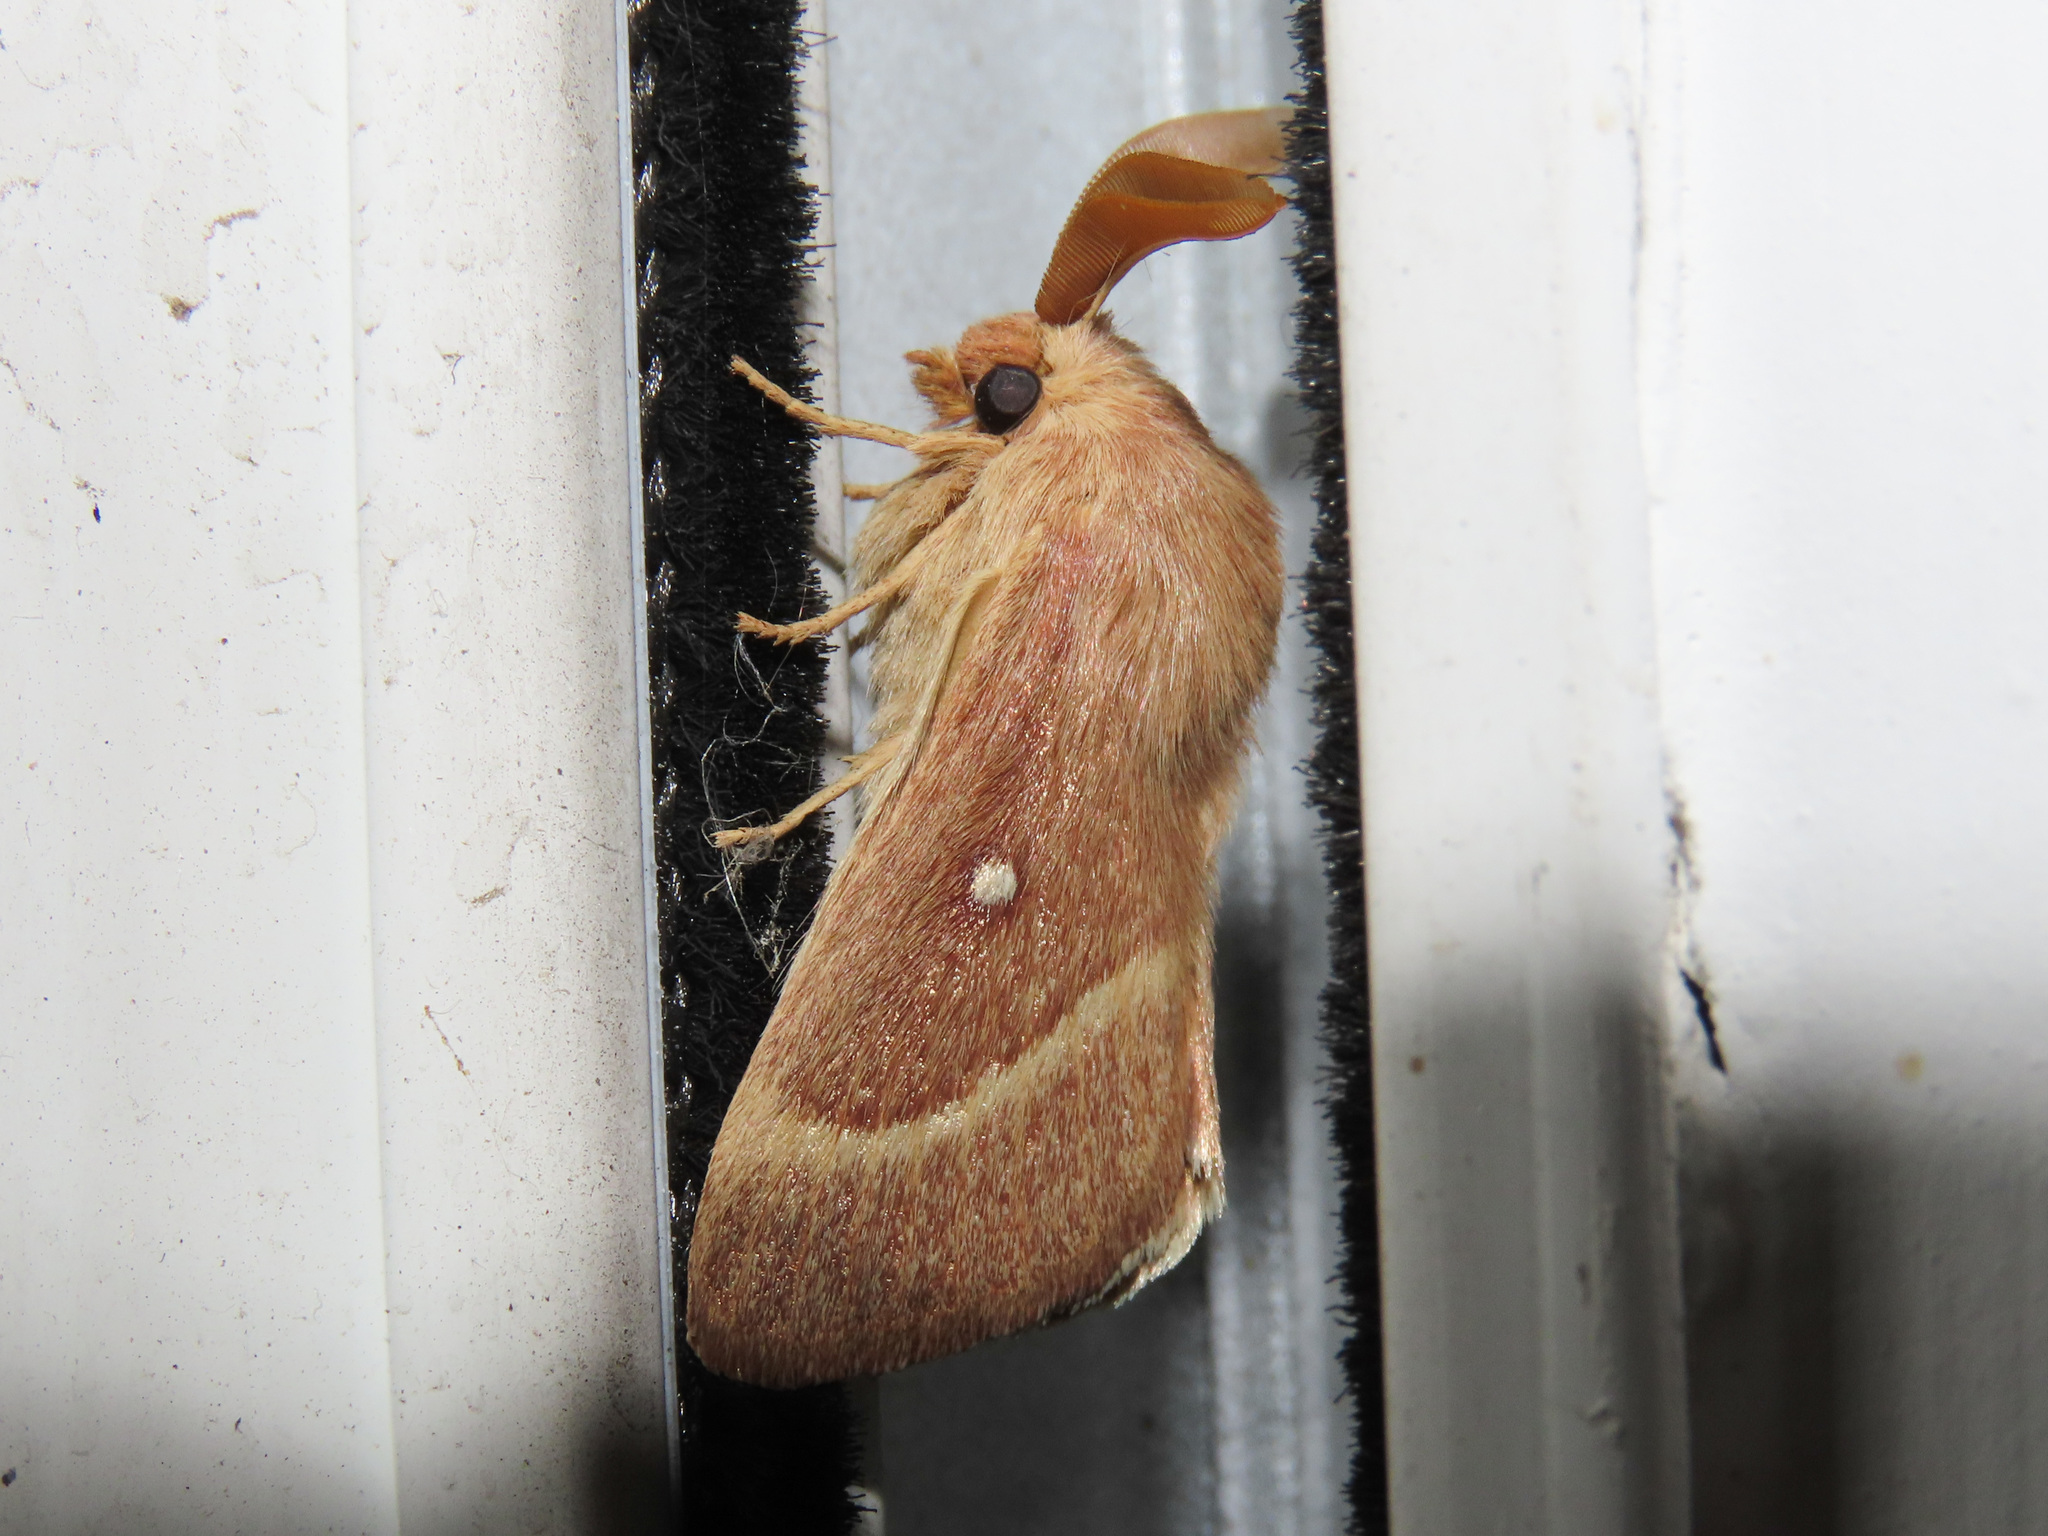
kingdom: Animalia
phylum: Arthropoda
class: Insecta
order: Lepidoptera
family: Lasiocampidae
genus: Lasiocampa
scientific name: Lasiocampa trifolii
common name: Grass eggar
